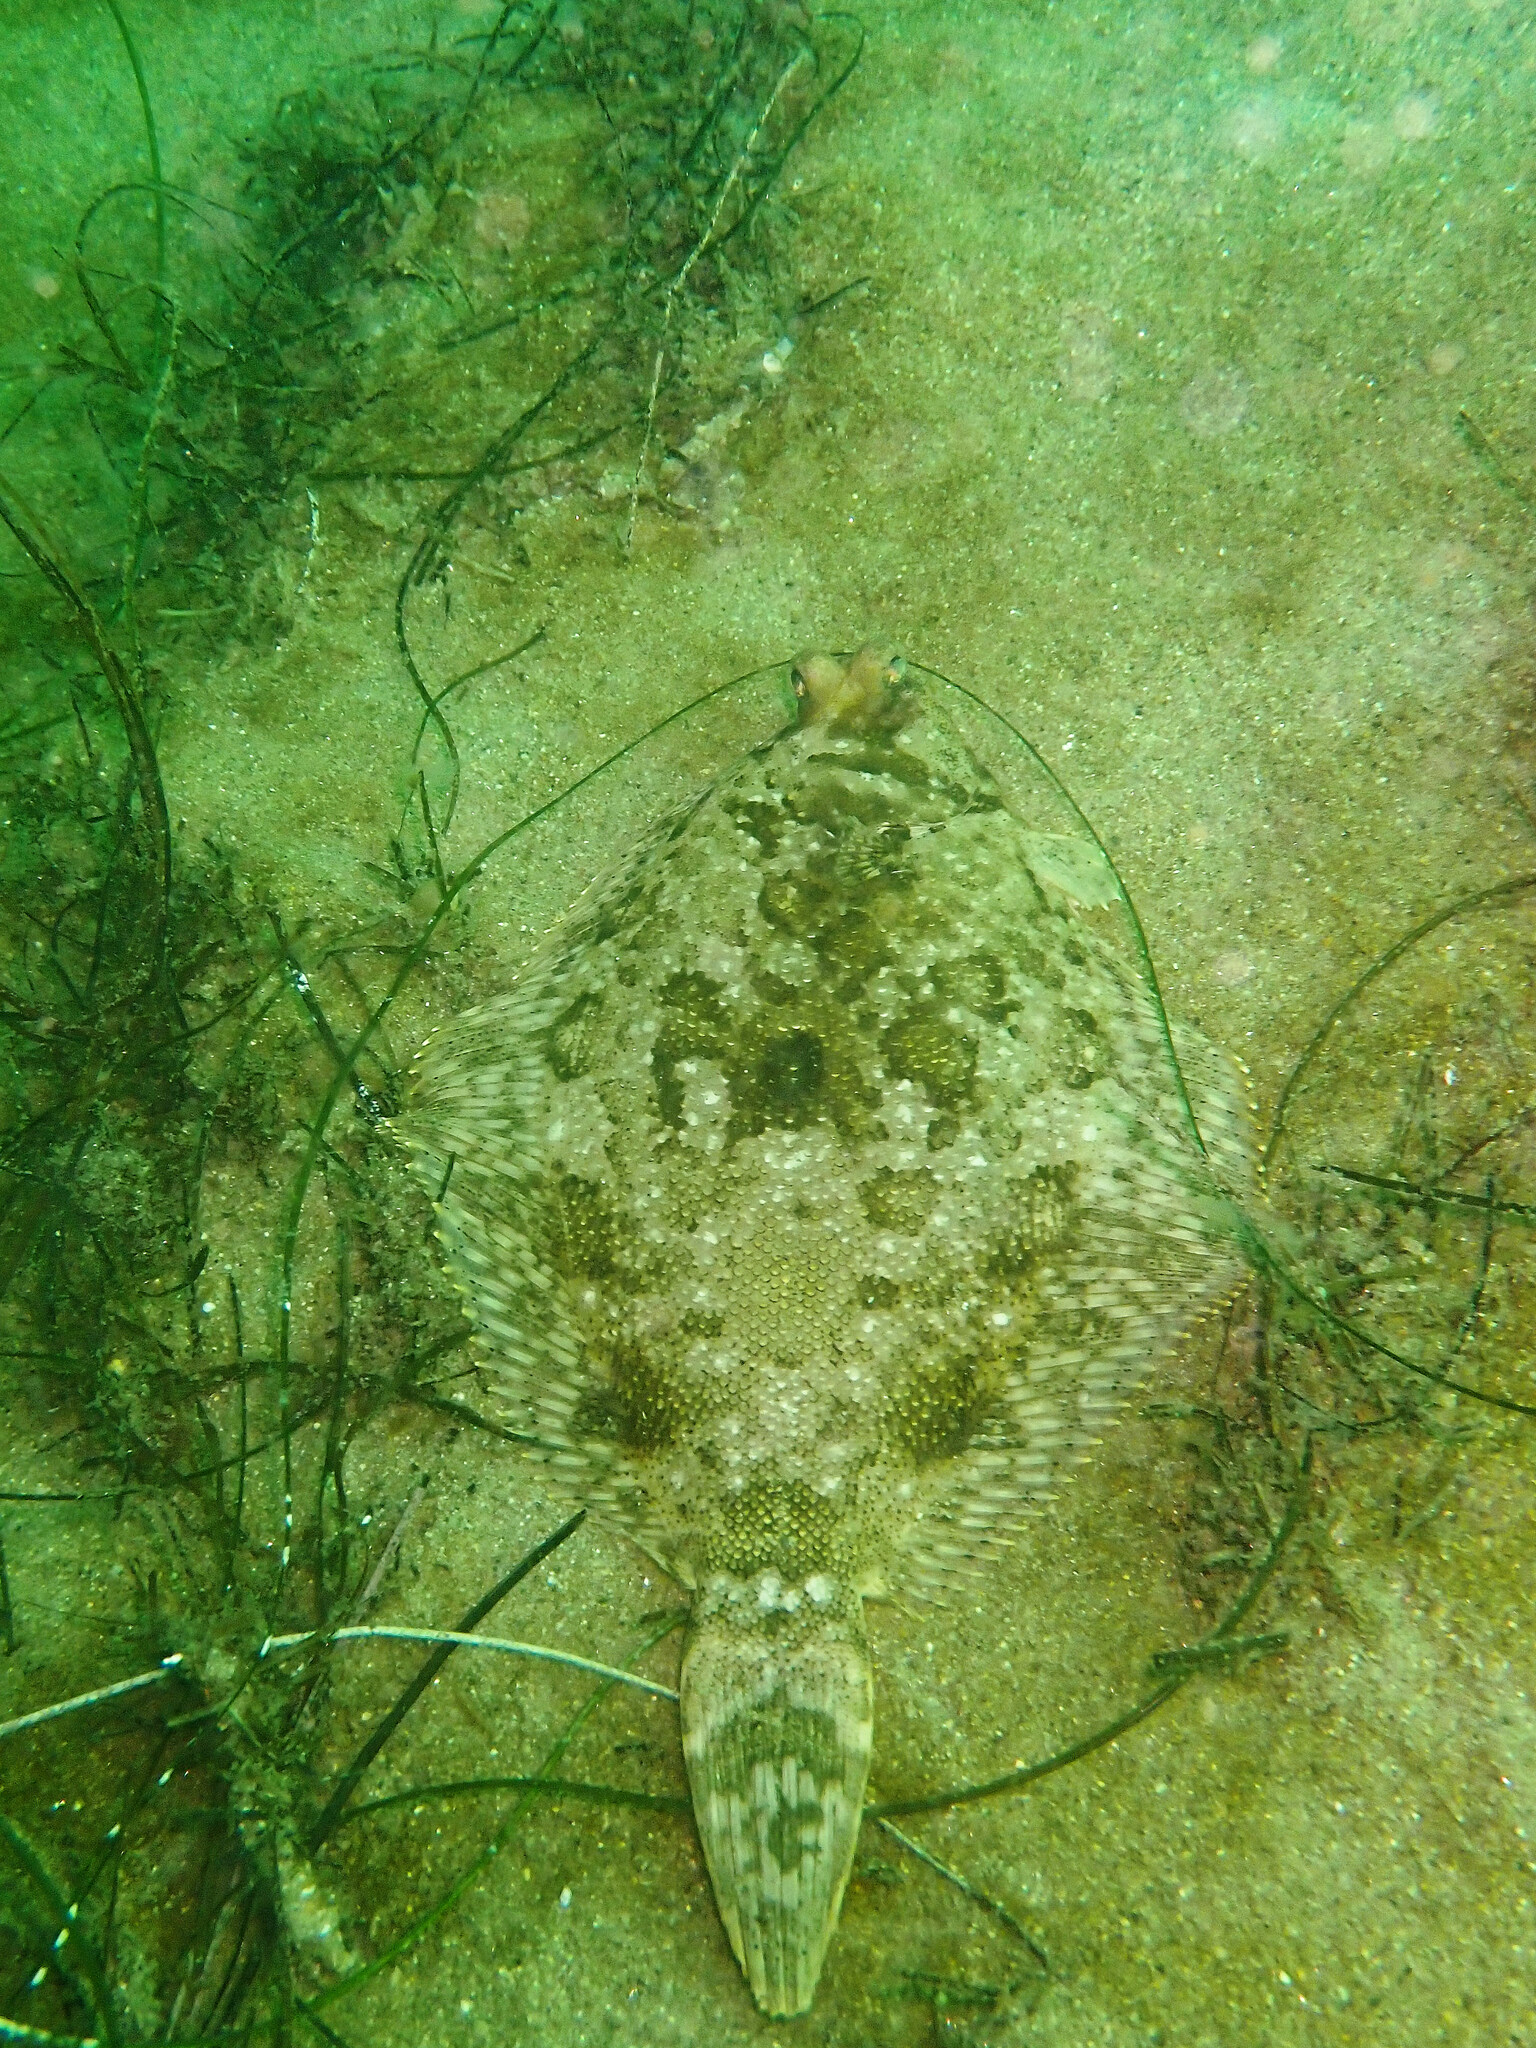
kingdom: Animalia
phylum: Chordata
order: Pleuronectiformes
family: Pleuronectidae
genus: Pleuronichthys
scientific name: Pleuronichthys coenosus
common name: C-o sole
